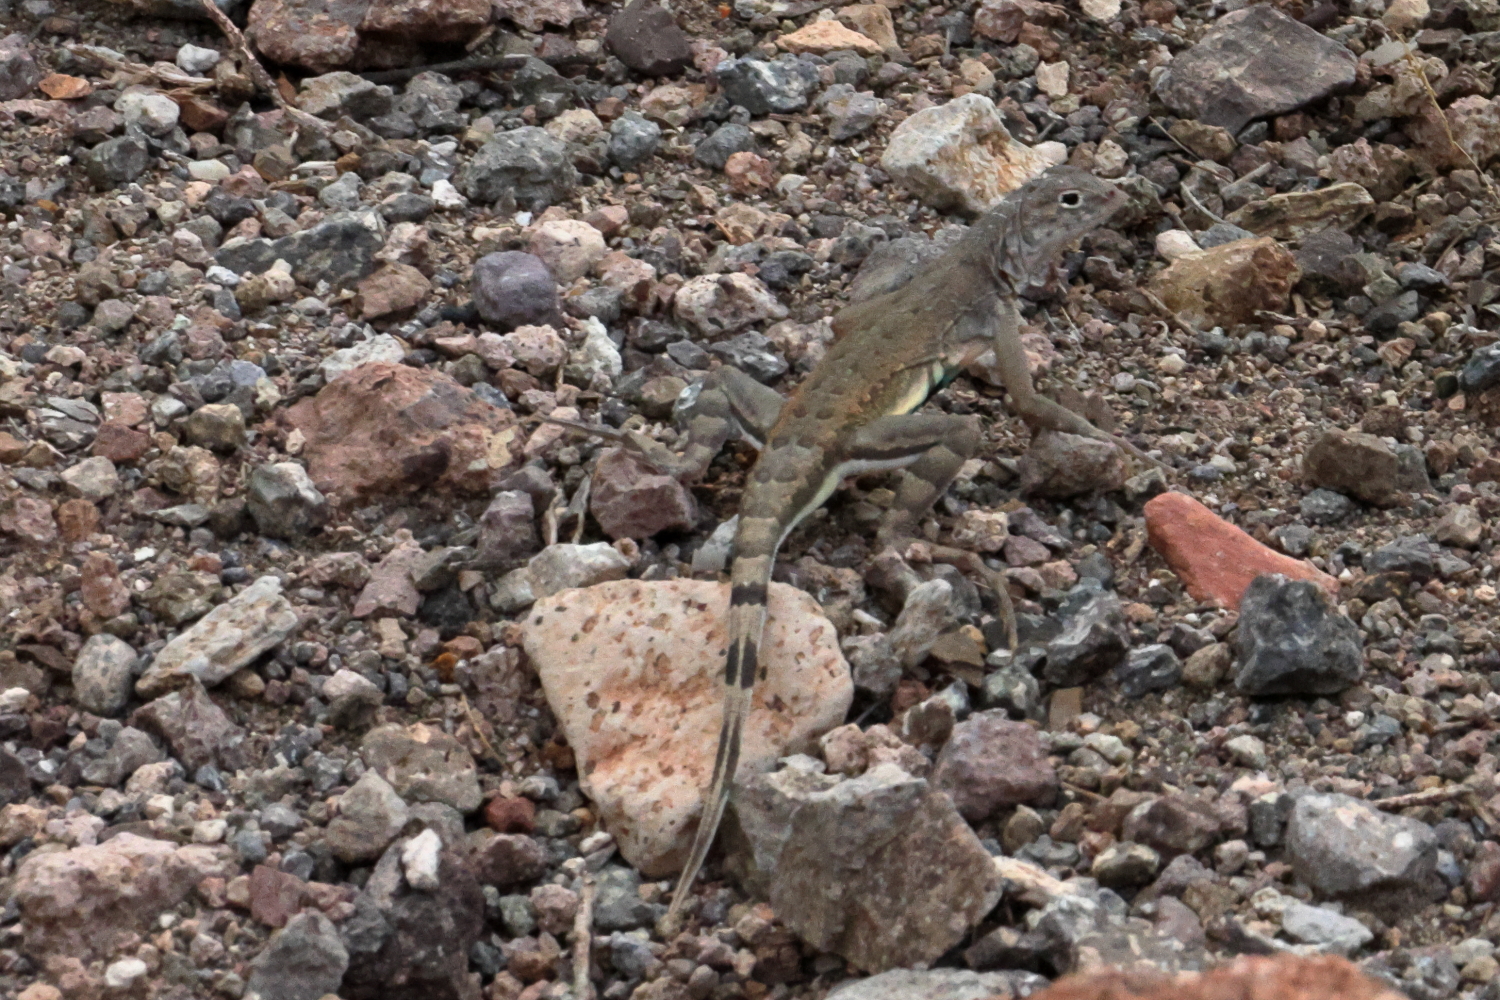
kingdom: Animalia
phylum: Chordata
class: Squamata
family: Phrynosomatidae
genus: Callisaurus
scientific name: Callisaurus draconoides
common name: Zebra-tailed lizard
